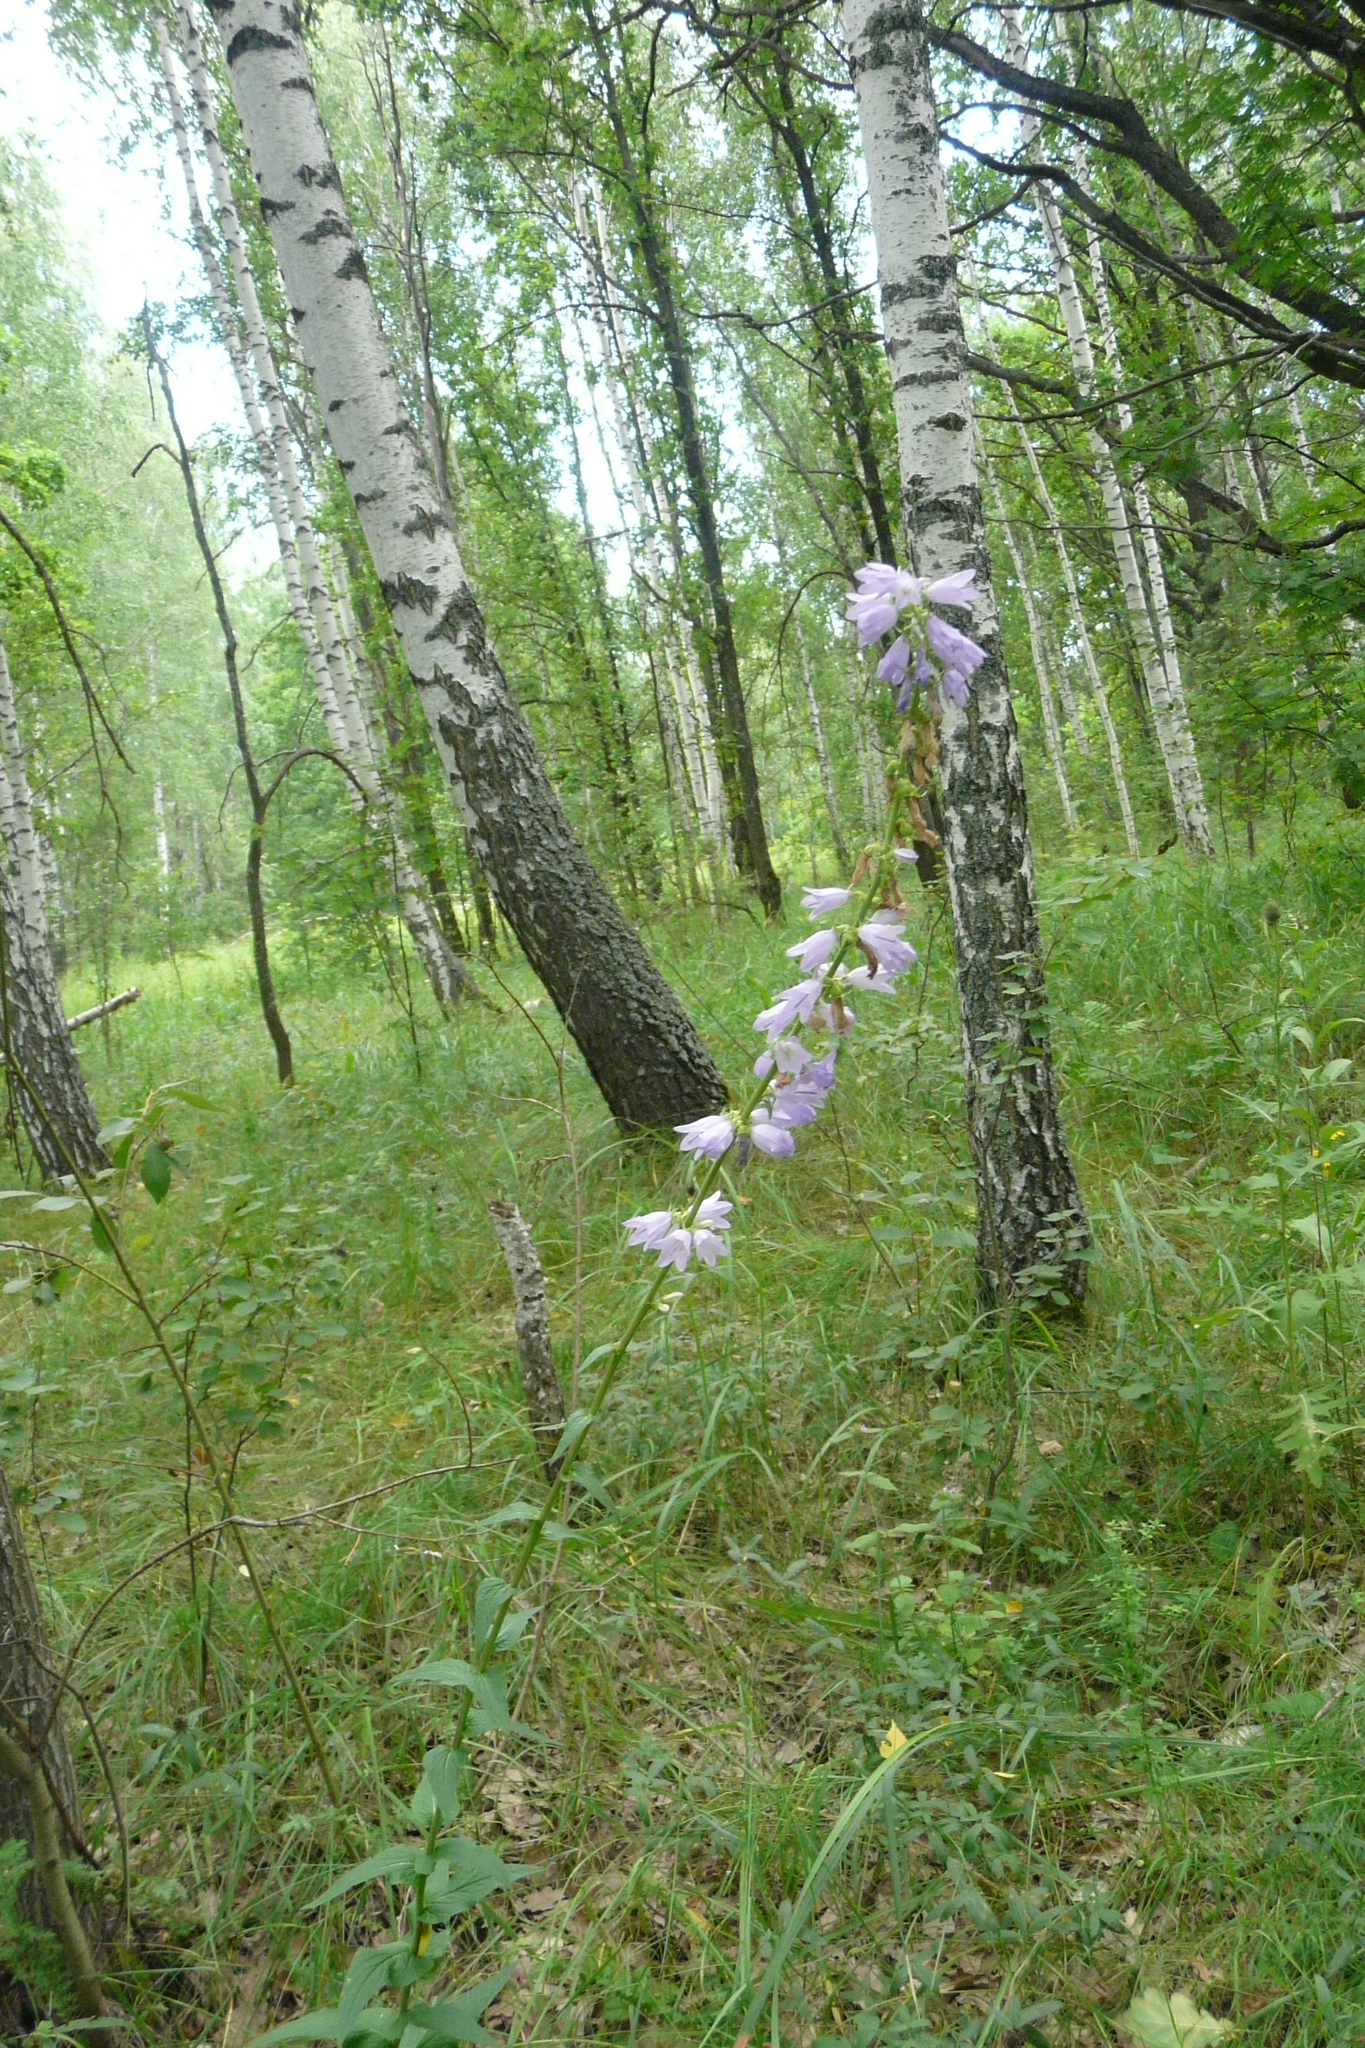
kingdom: Plantae
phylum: Tracheophyta
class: Magnoliopsida
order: Asterales
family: Campanulaceae
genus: Campanula
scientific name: Campanula bononiensis
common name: Pale bellflower
